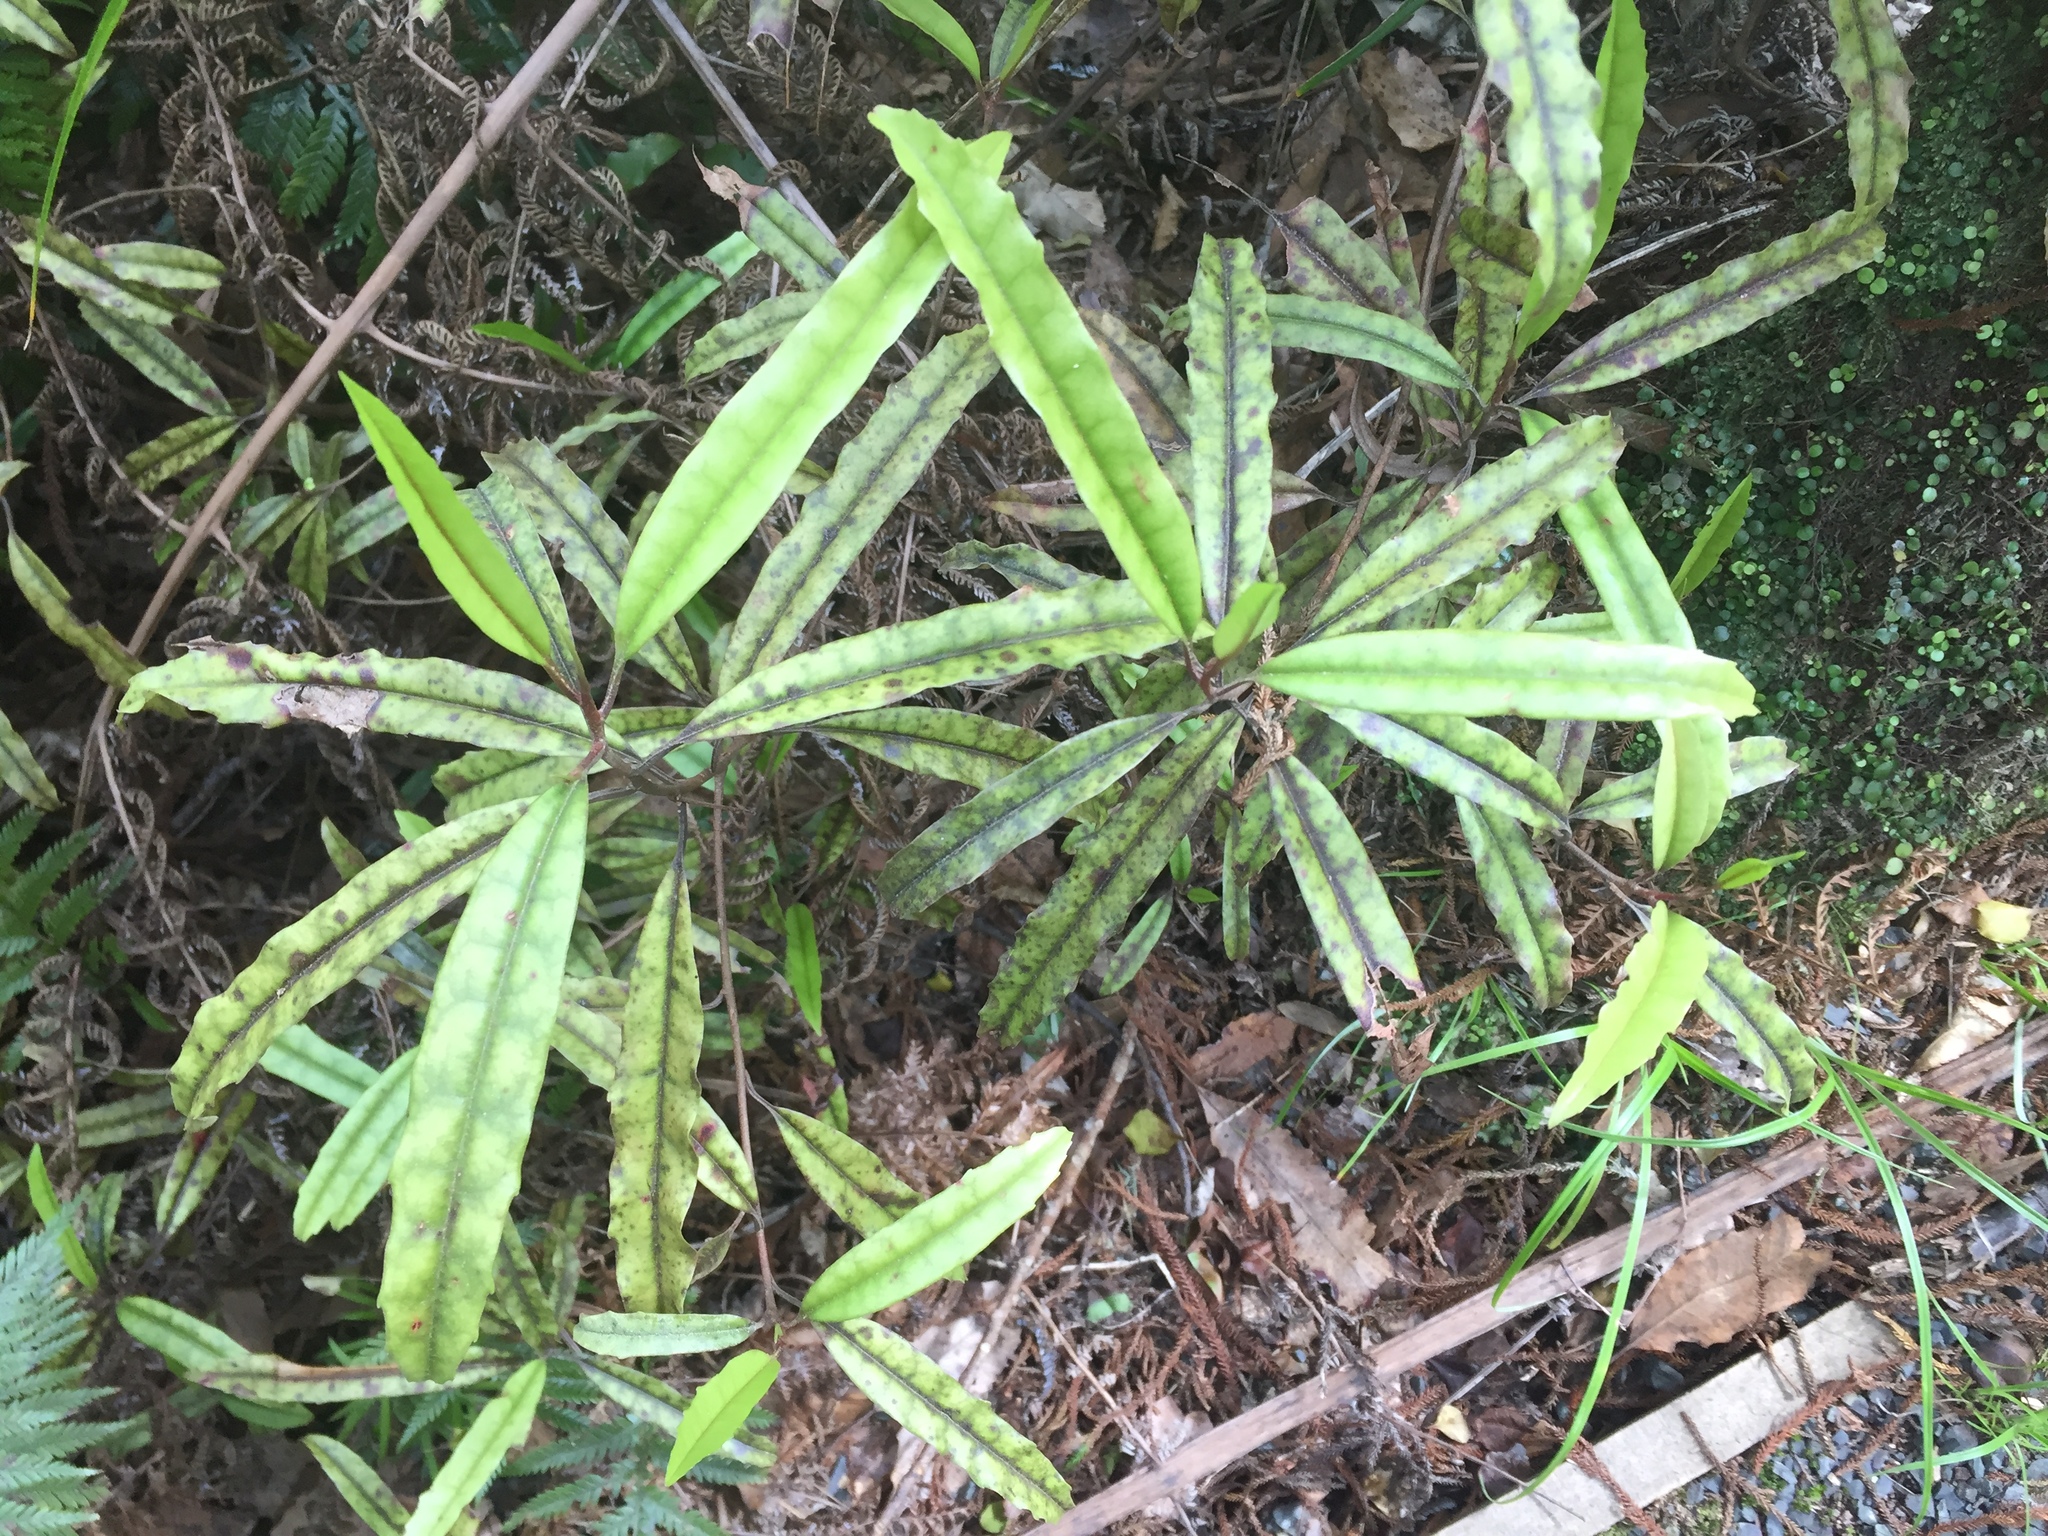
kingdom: Plantae
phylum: Tracheophyta
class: Magnoliopsida
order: Paracryphiales
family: Paracryphiaceae
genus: Quintinia
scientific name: Quintinia serrata
